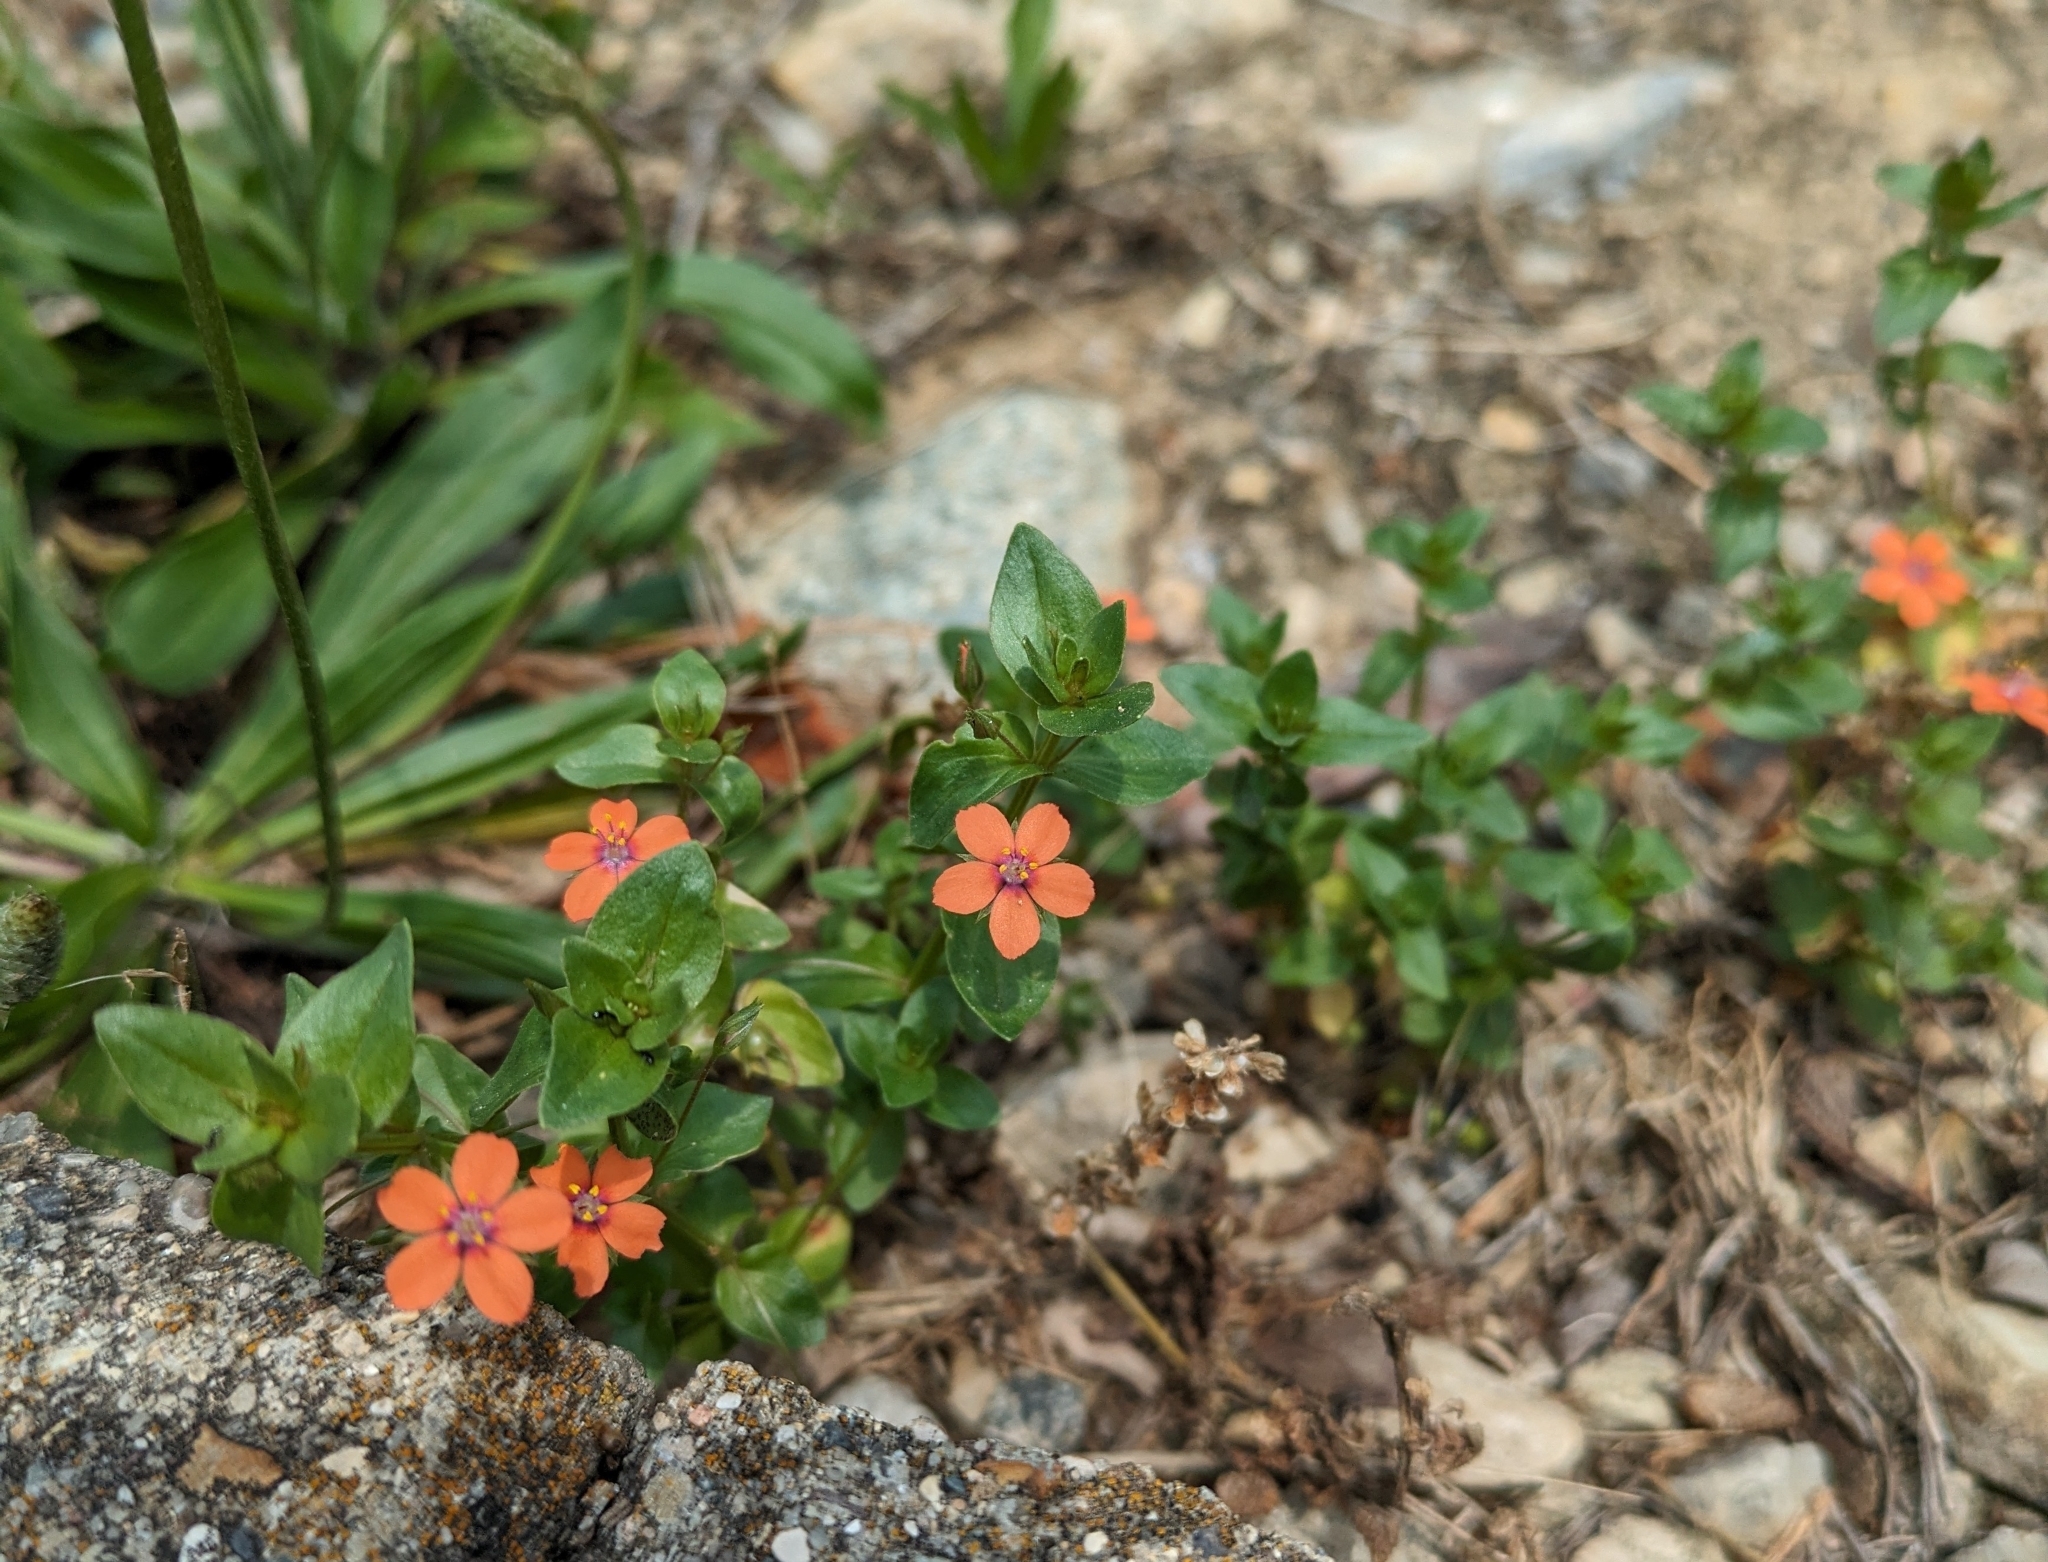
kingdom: Plantae
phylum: Tracheophyta
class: Magnoliopsida
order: Ericales
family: Primulaceae
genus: Lysimachia
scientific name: Lysimachia arvensis
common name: Scarlet pimpernel
